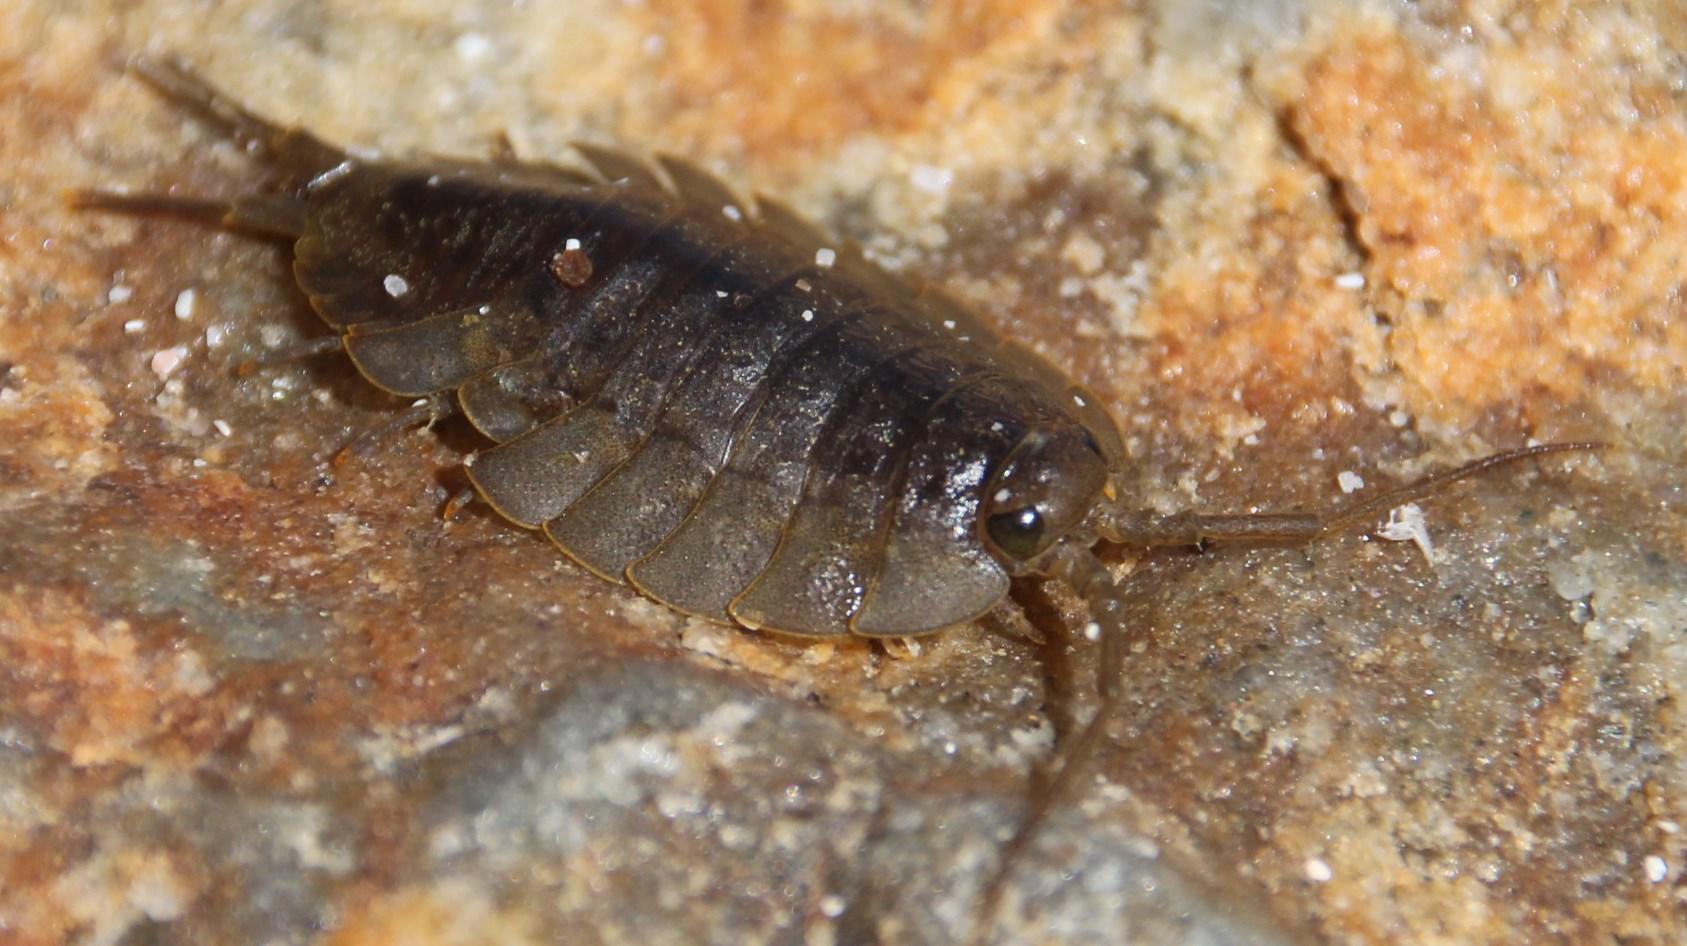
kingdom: Animalia
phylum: Arthropoda
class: Malacostraca
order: Isopoda
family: Ligiidae
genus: Ligia
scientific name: Ligia dilatata
